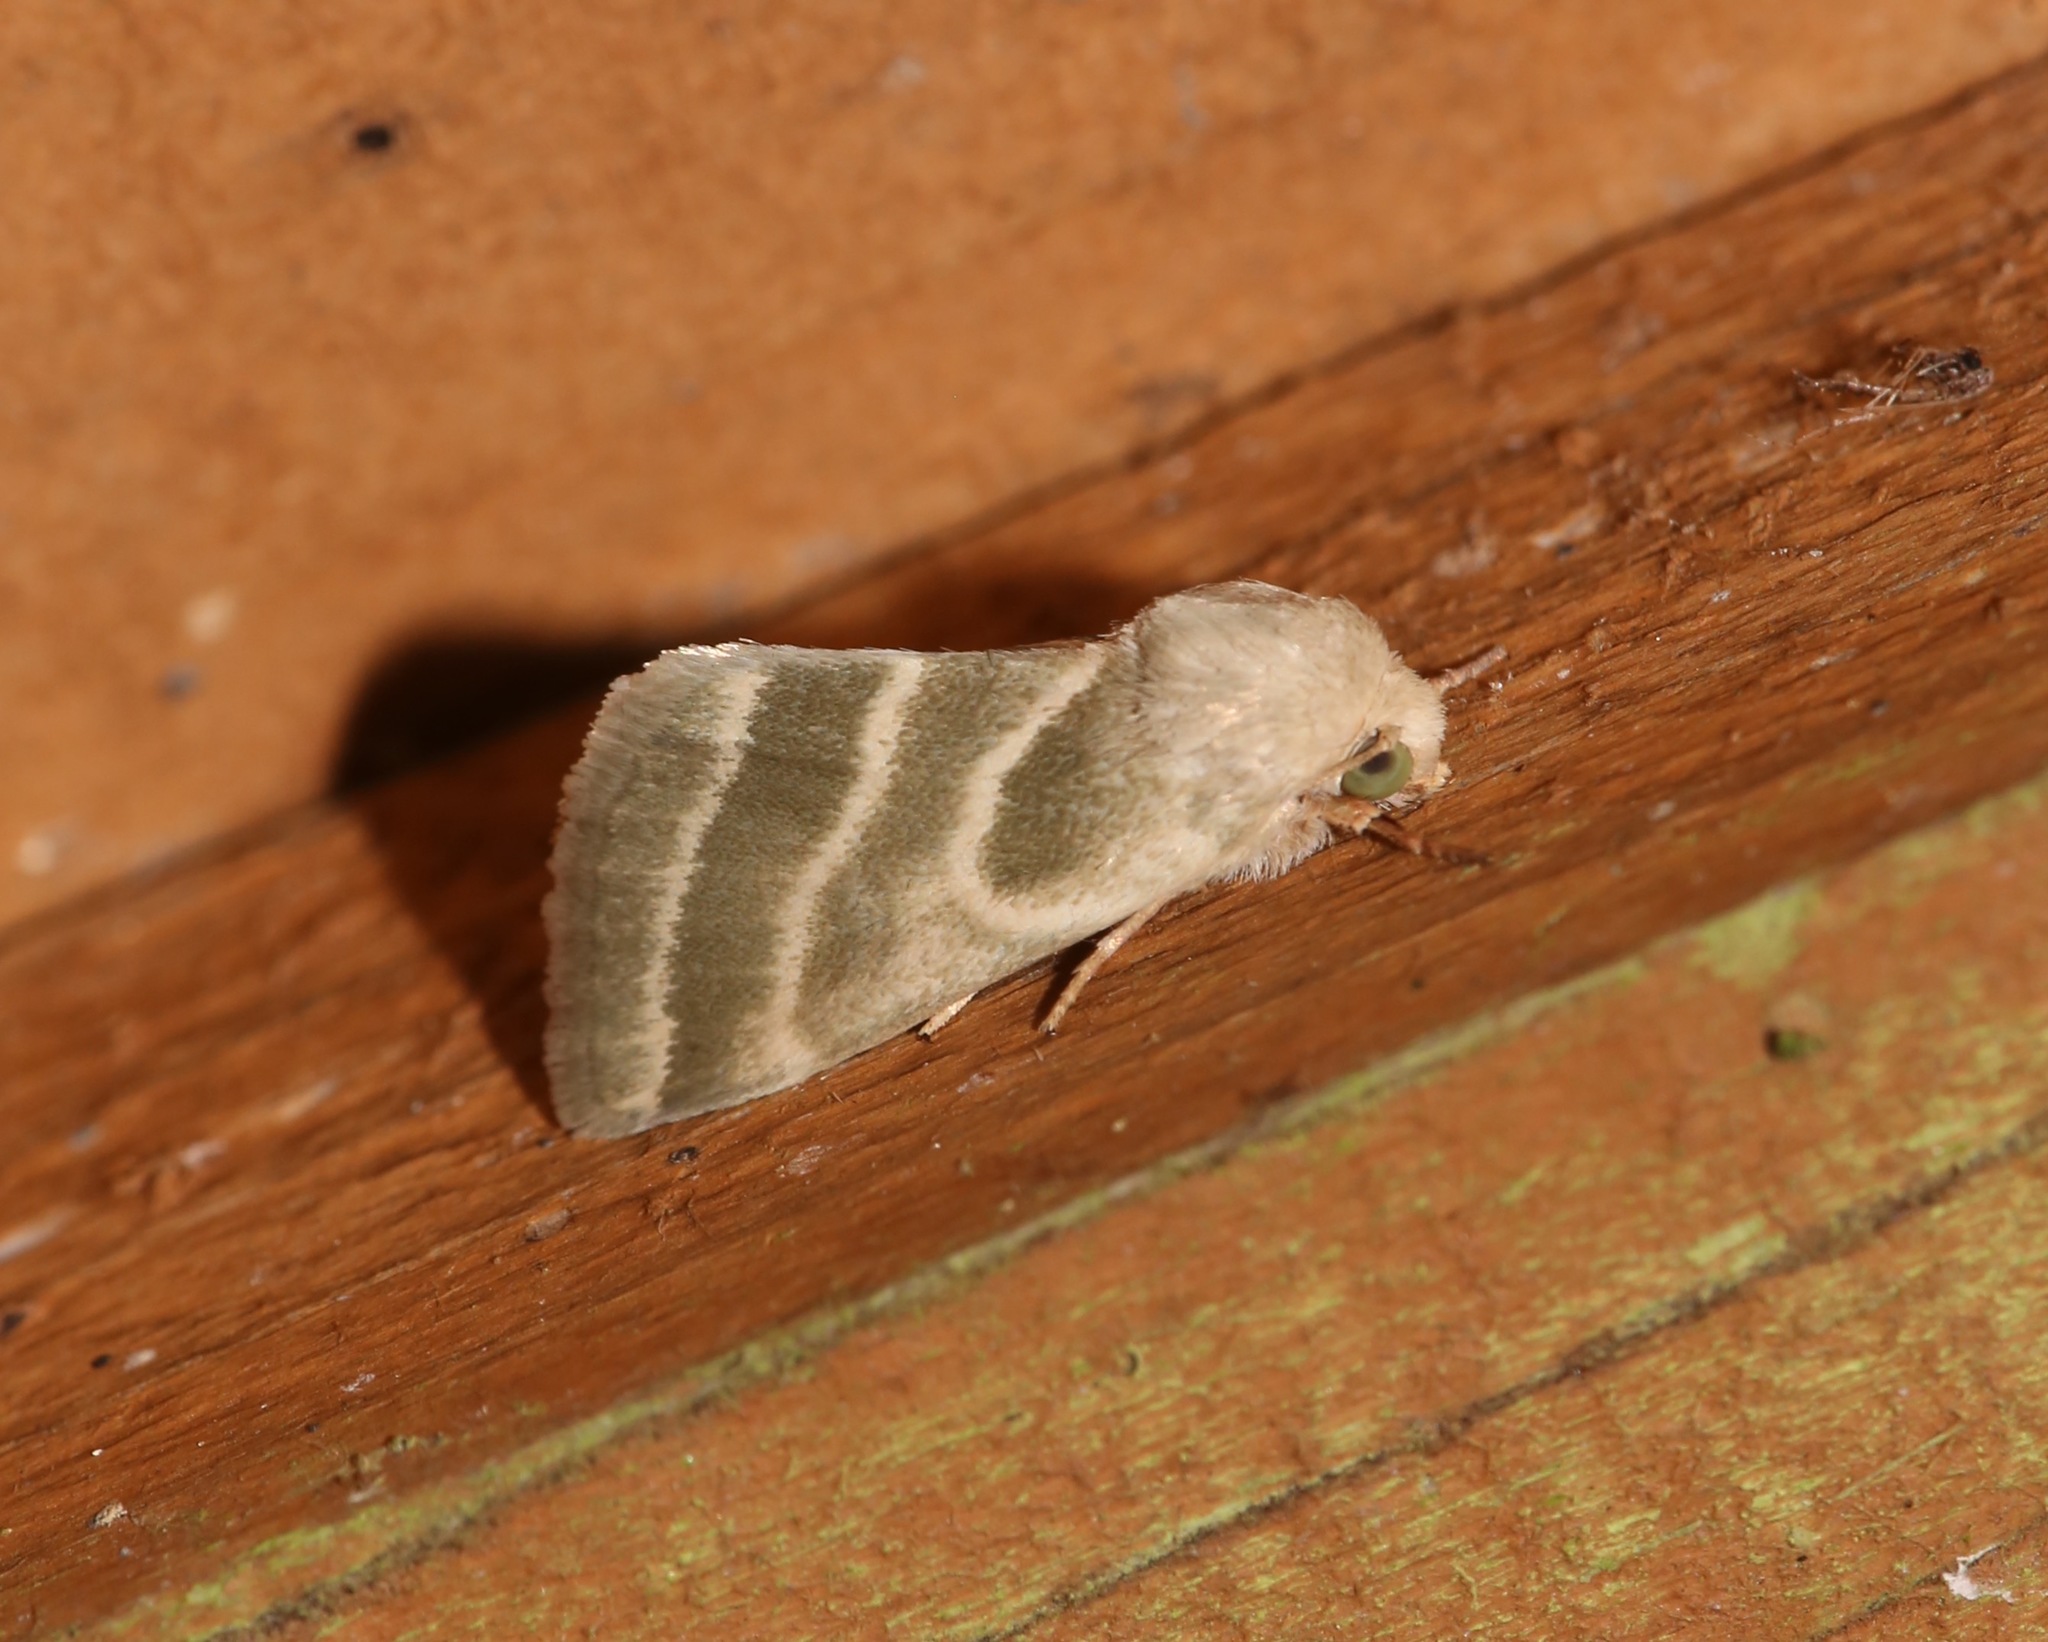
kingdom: Animalia
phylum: Arthropoda
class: Insecta
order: Lepidoptera
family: Noctuidae
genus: Schinia
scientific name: Schinia trifascia
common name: Three-lined flower moth
